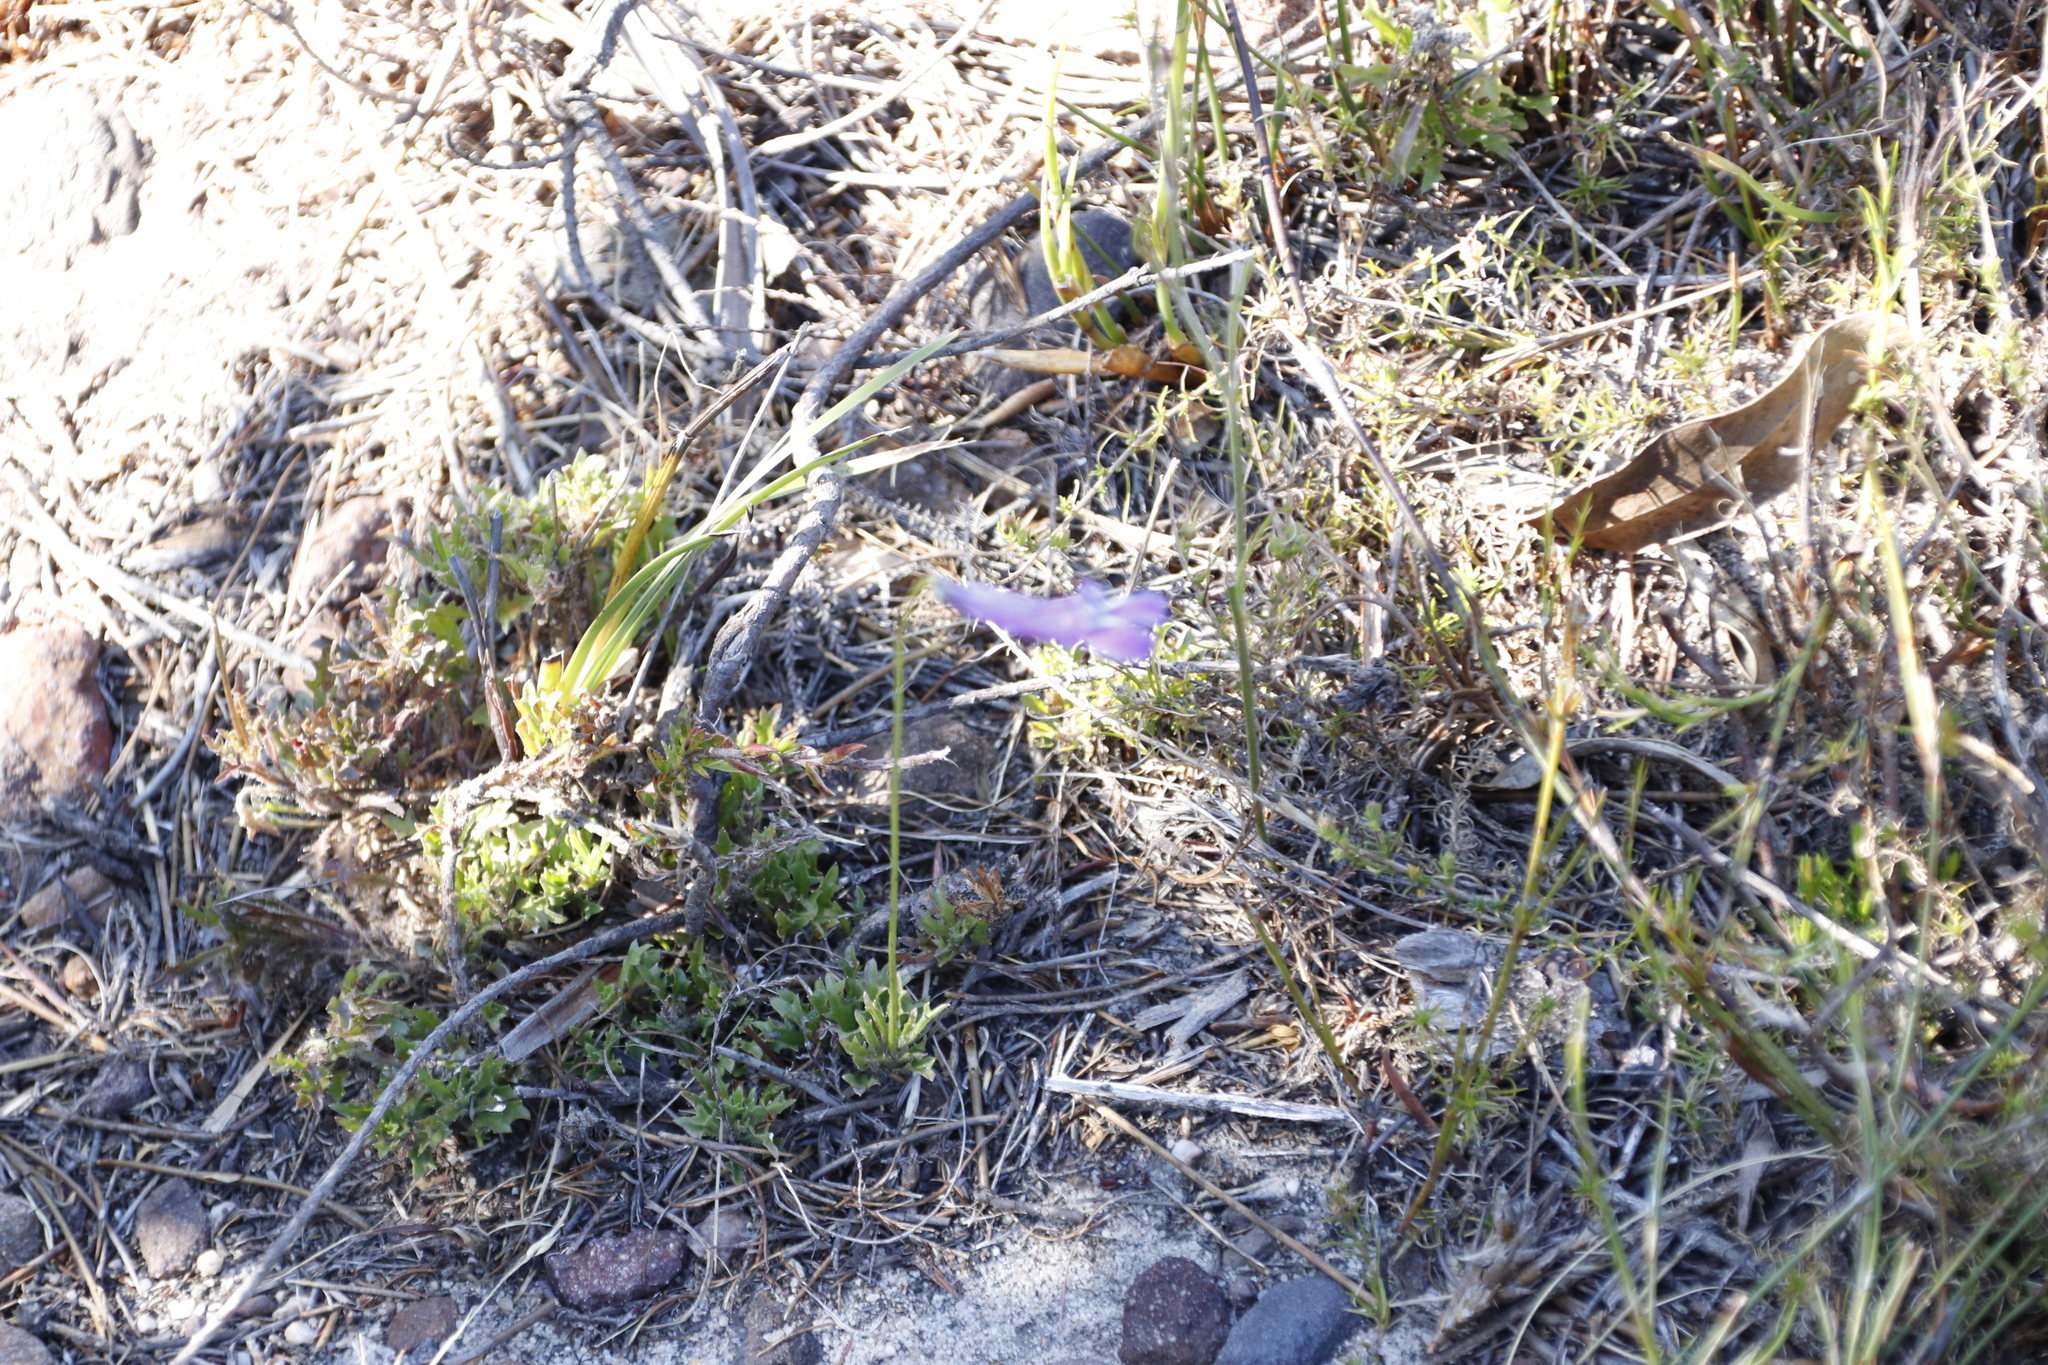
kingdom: Plantae
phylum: Tracheophyta
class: Magnoliopsida
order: Asterales
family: Campanulaceae
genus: Lobelia
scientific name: Lobelia coronopifolia
